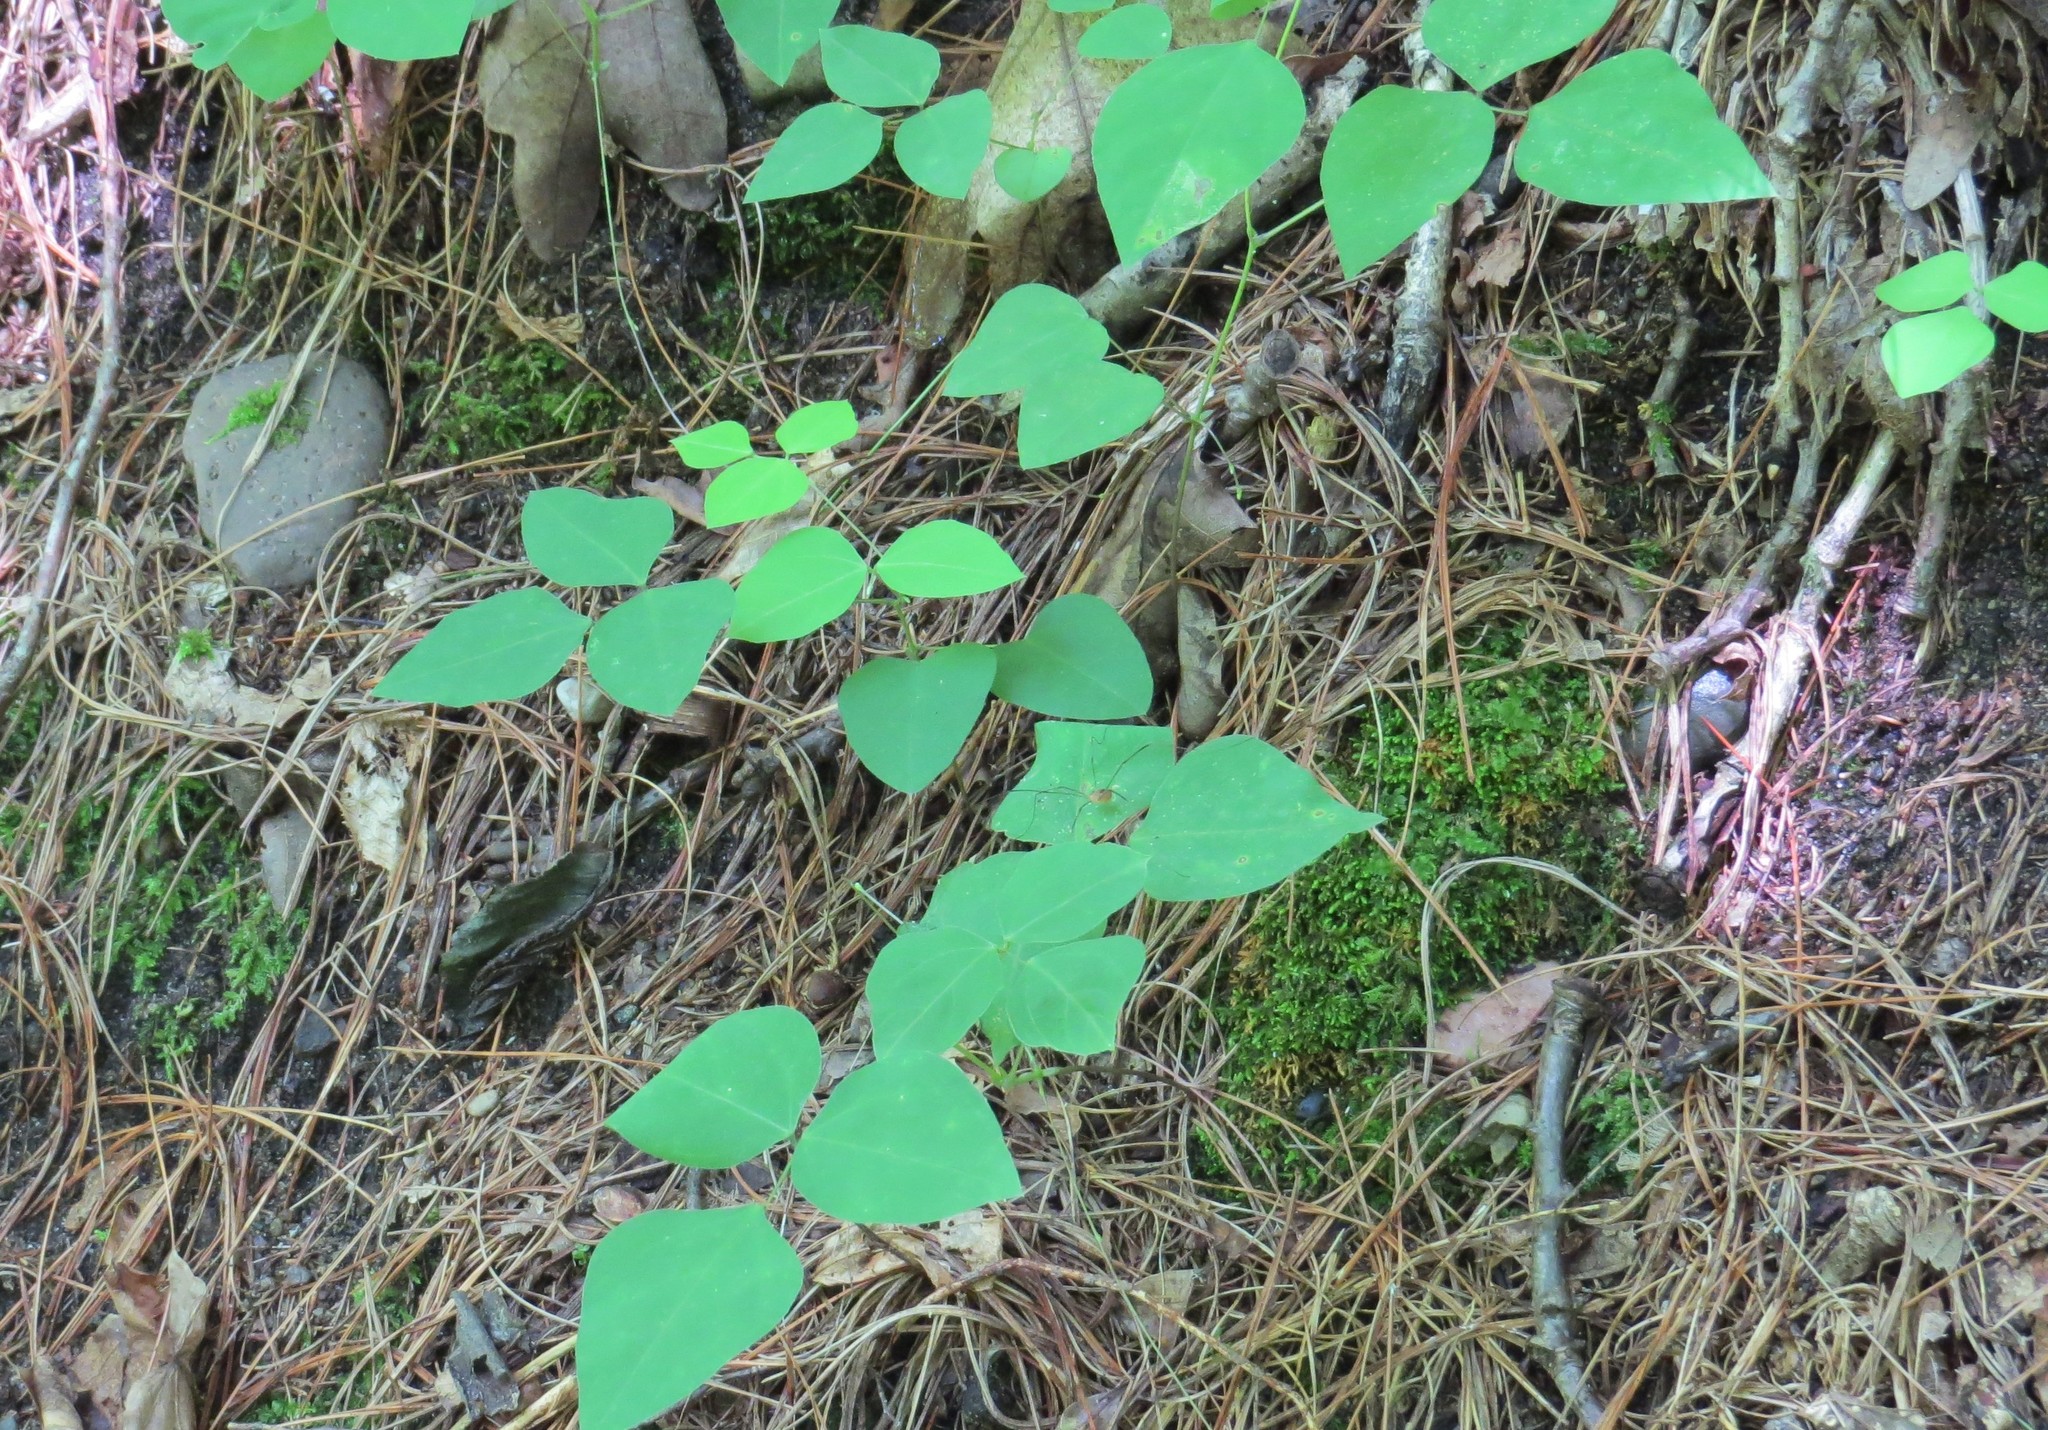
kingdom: Plantae
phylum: Tracheophyta
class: Magnoliopsida
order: Fabales
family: Fabaceae
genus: Amphicarpaea
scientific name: Amphicarpaea bracteata
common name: American hog peanut
